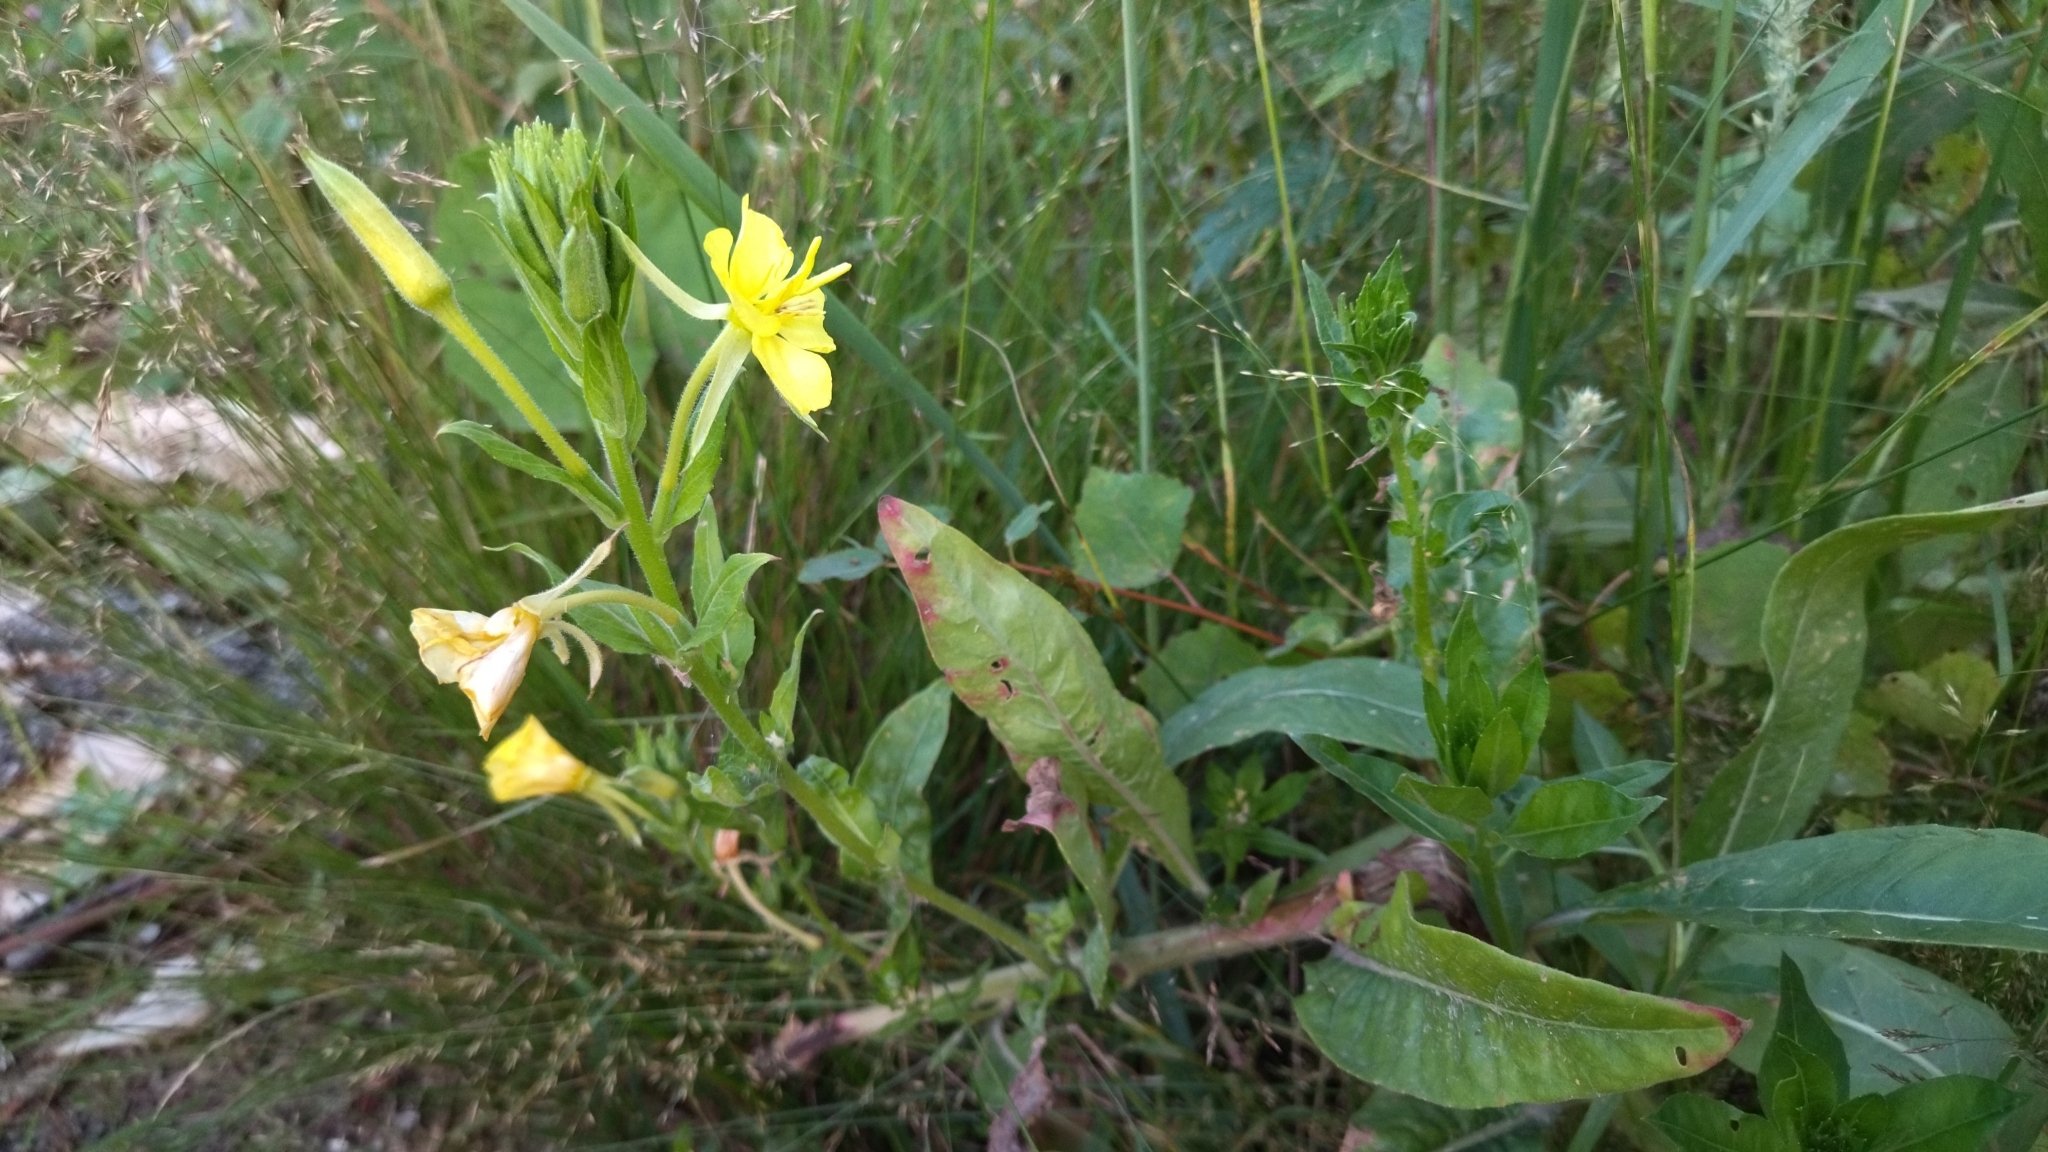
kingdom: Plantae
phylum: Tracheophyta
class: Magnoliopsida
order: Myrtales
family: Onagraceae
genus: Oenothera
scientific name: Oenothera biennis
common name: Common evening-primrose
